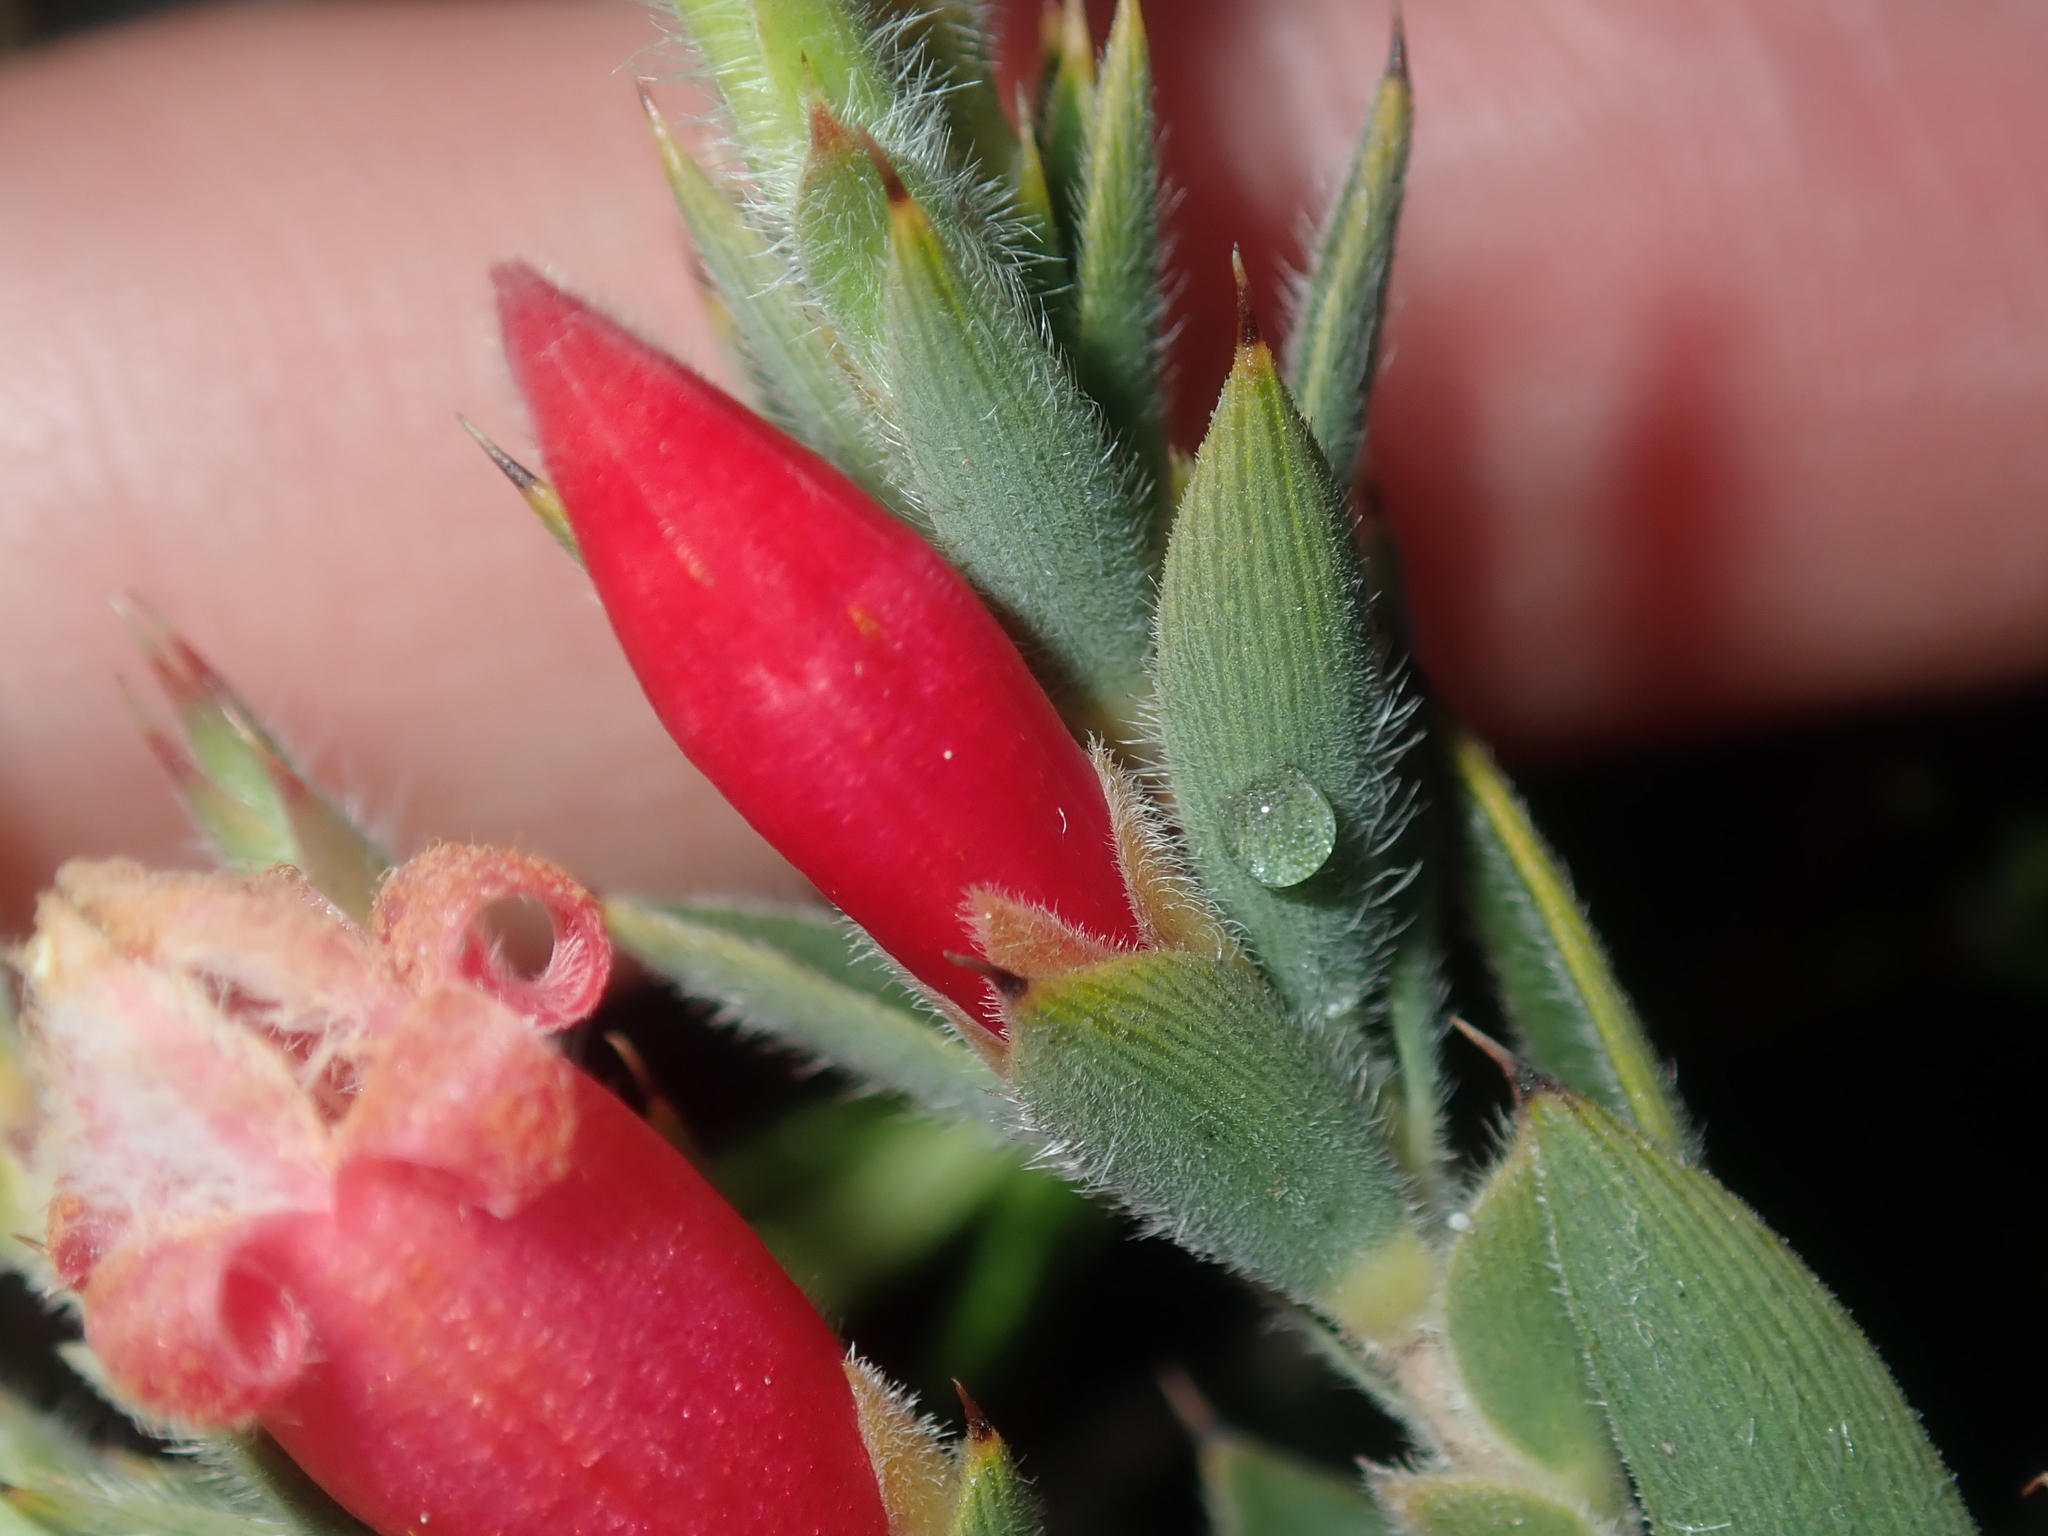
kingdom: Plantae
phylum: Tracheophyta
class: Magnoliopsida
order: Ericales
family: Ericaceae
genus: Styphelia
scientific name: Styphelia stomarrhena
